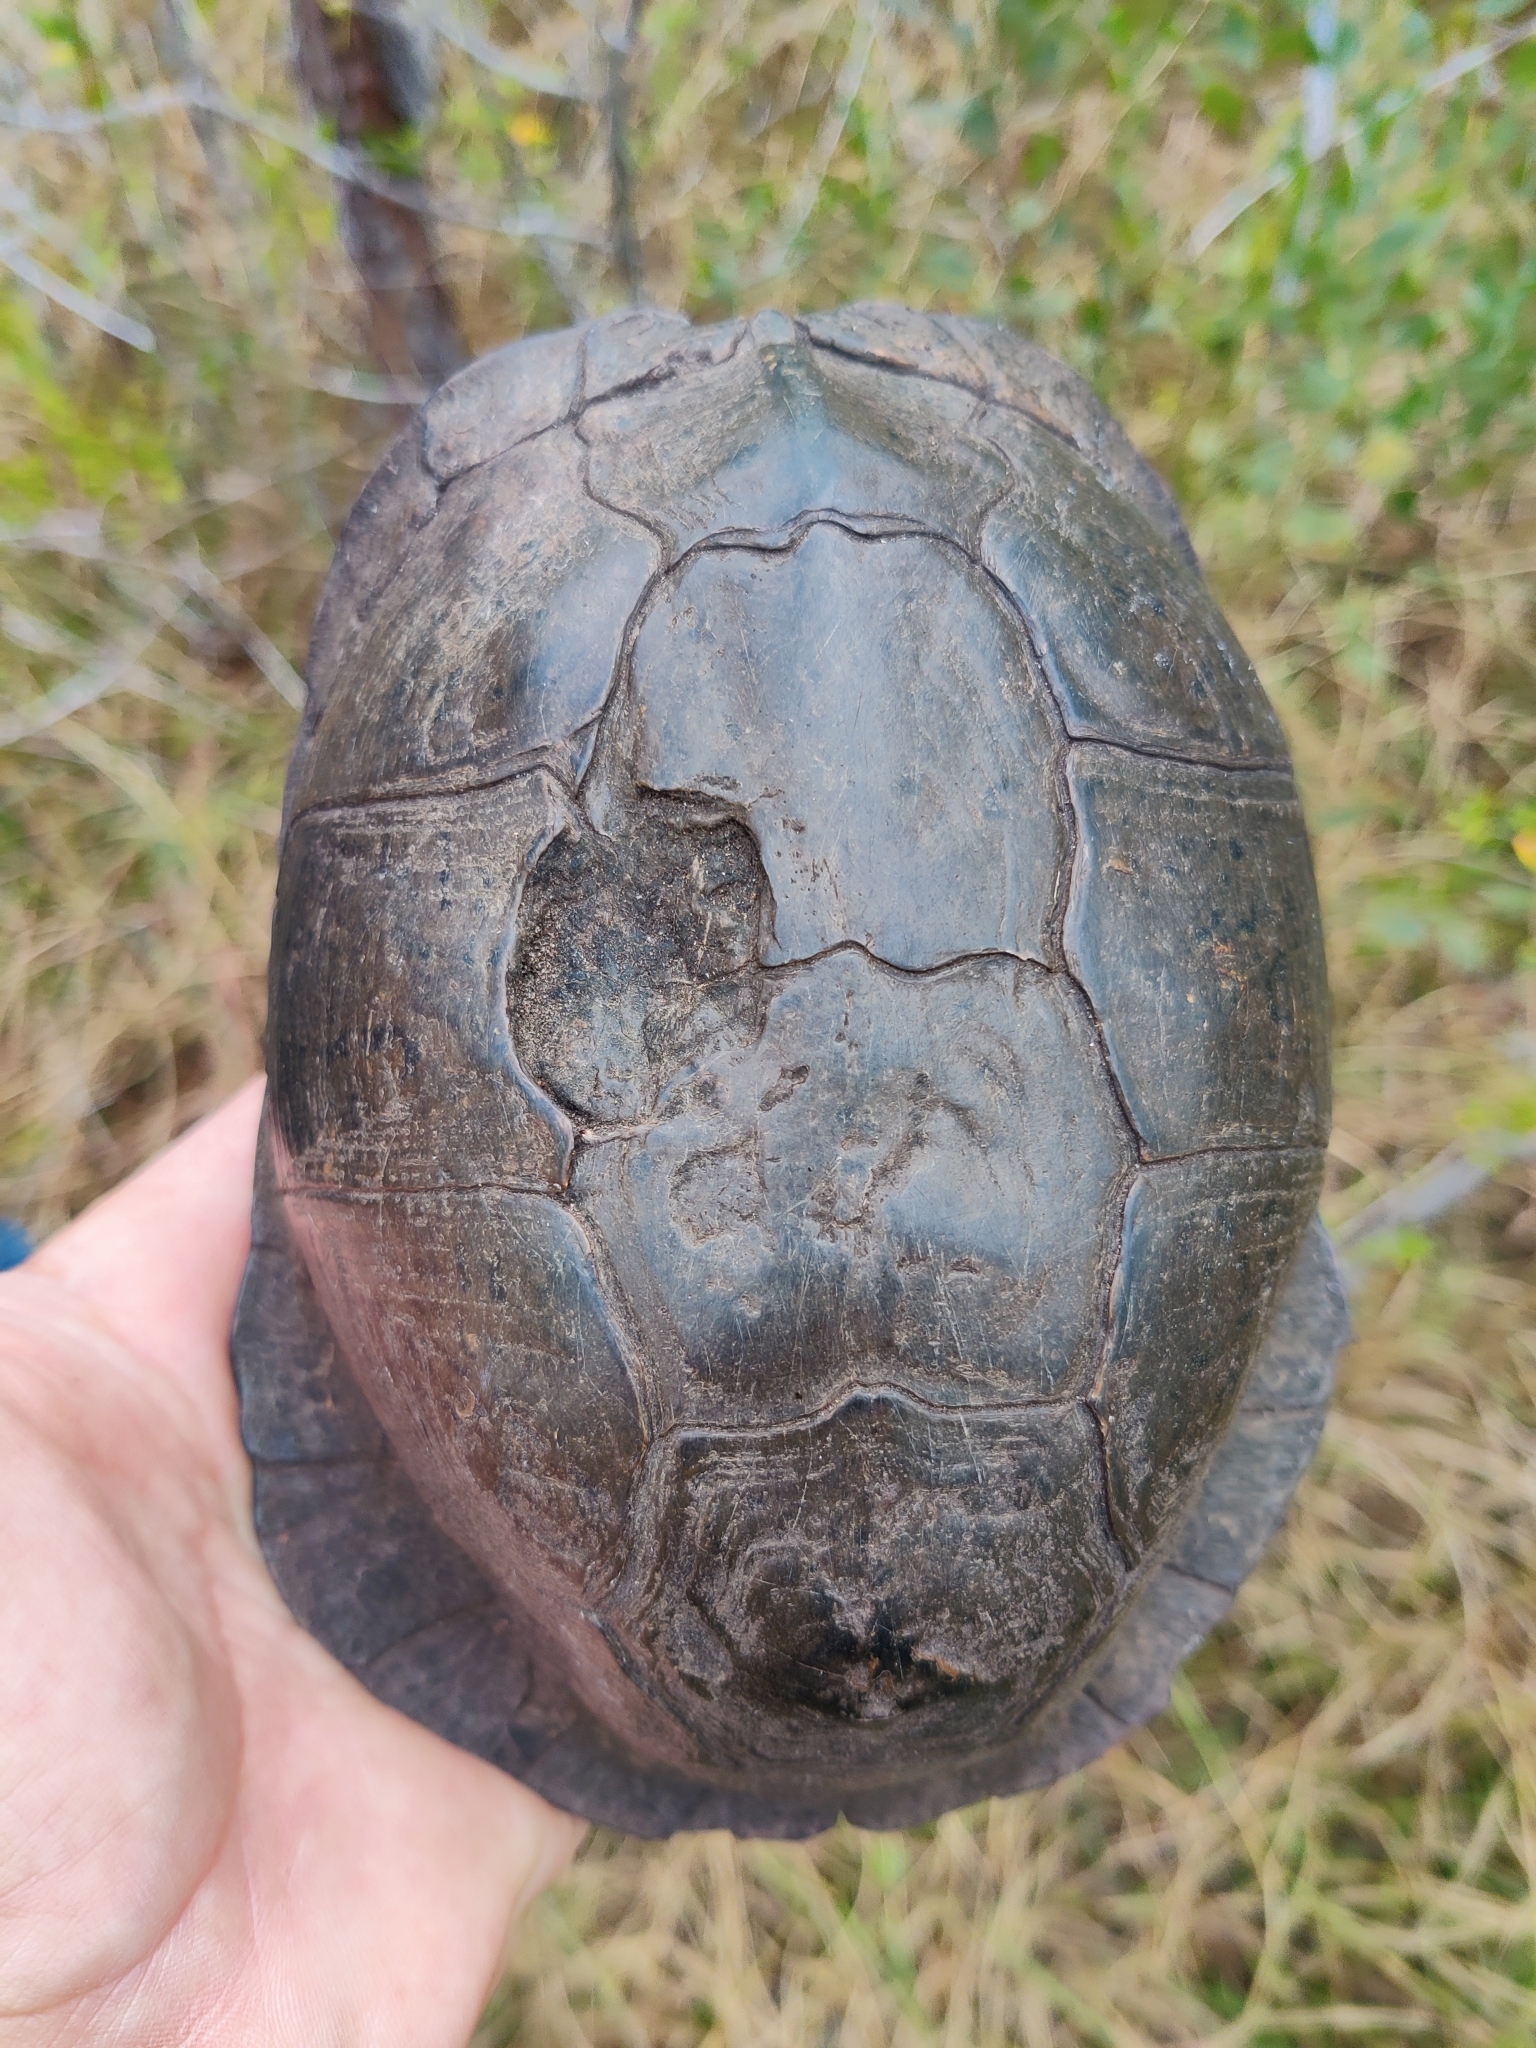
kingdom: Animalia
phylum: Chordata
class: Testudines
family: Emydidae
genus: Terrapene
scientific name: Terrapene carolina
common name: Common box turtle
